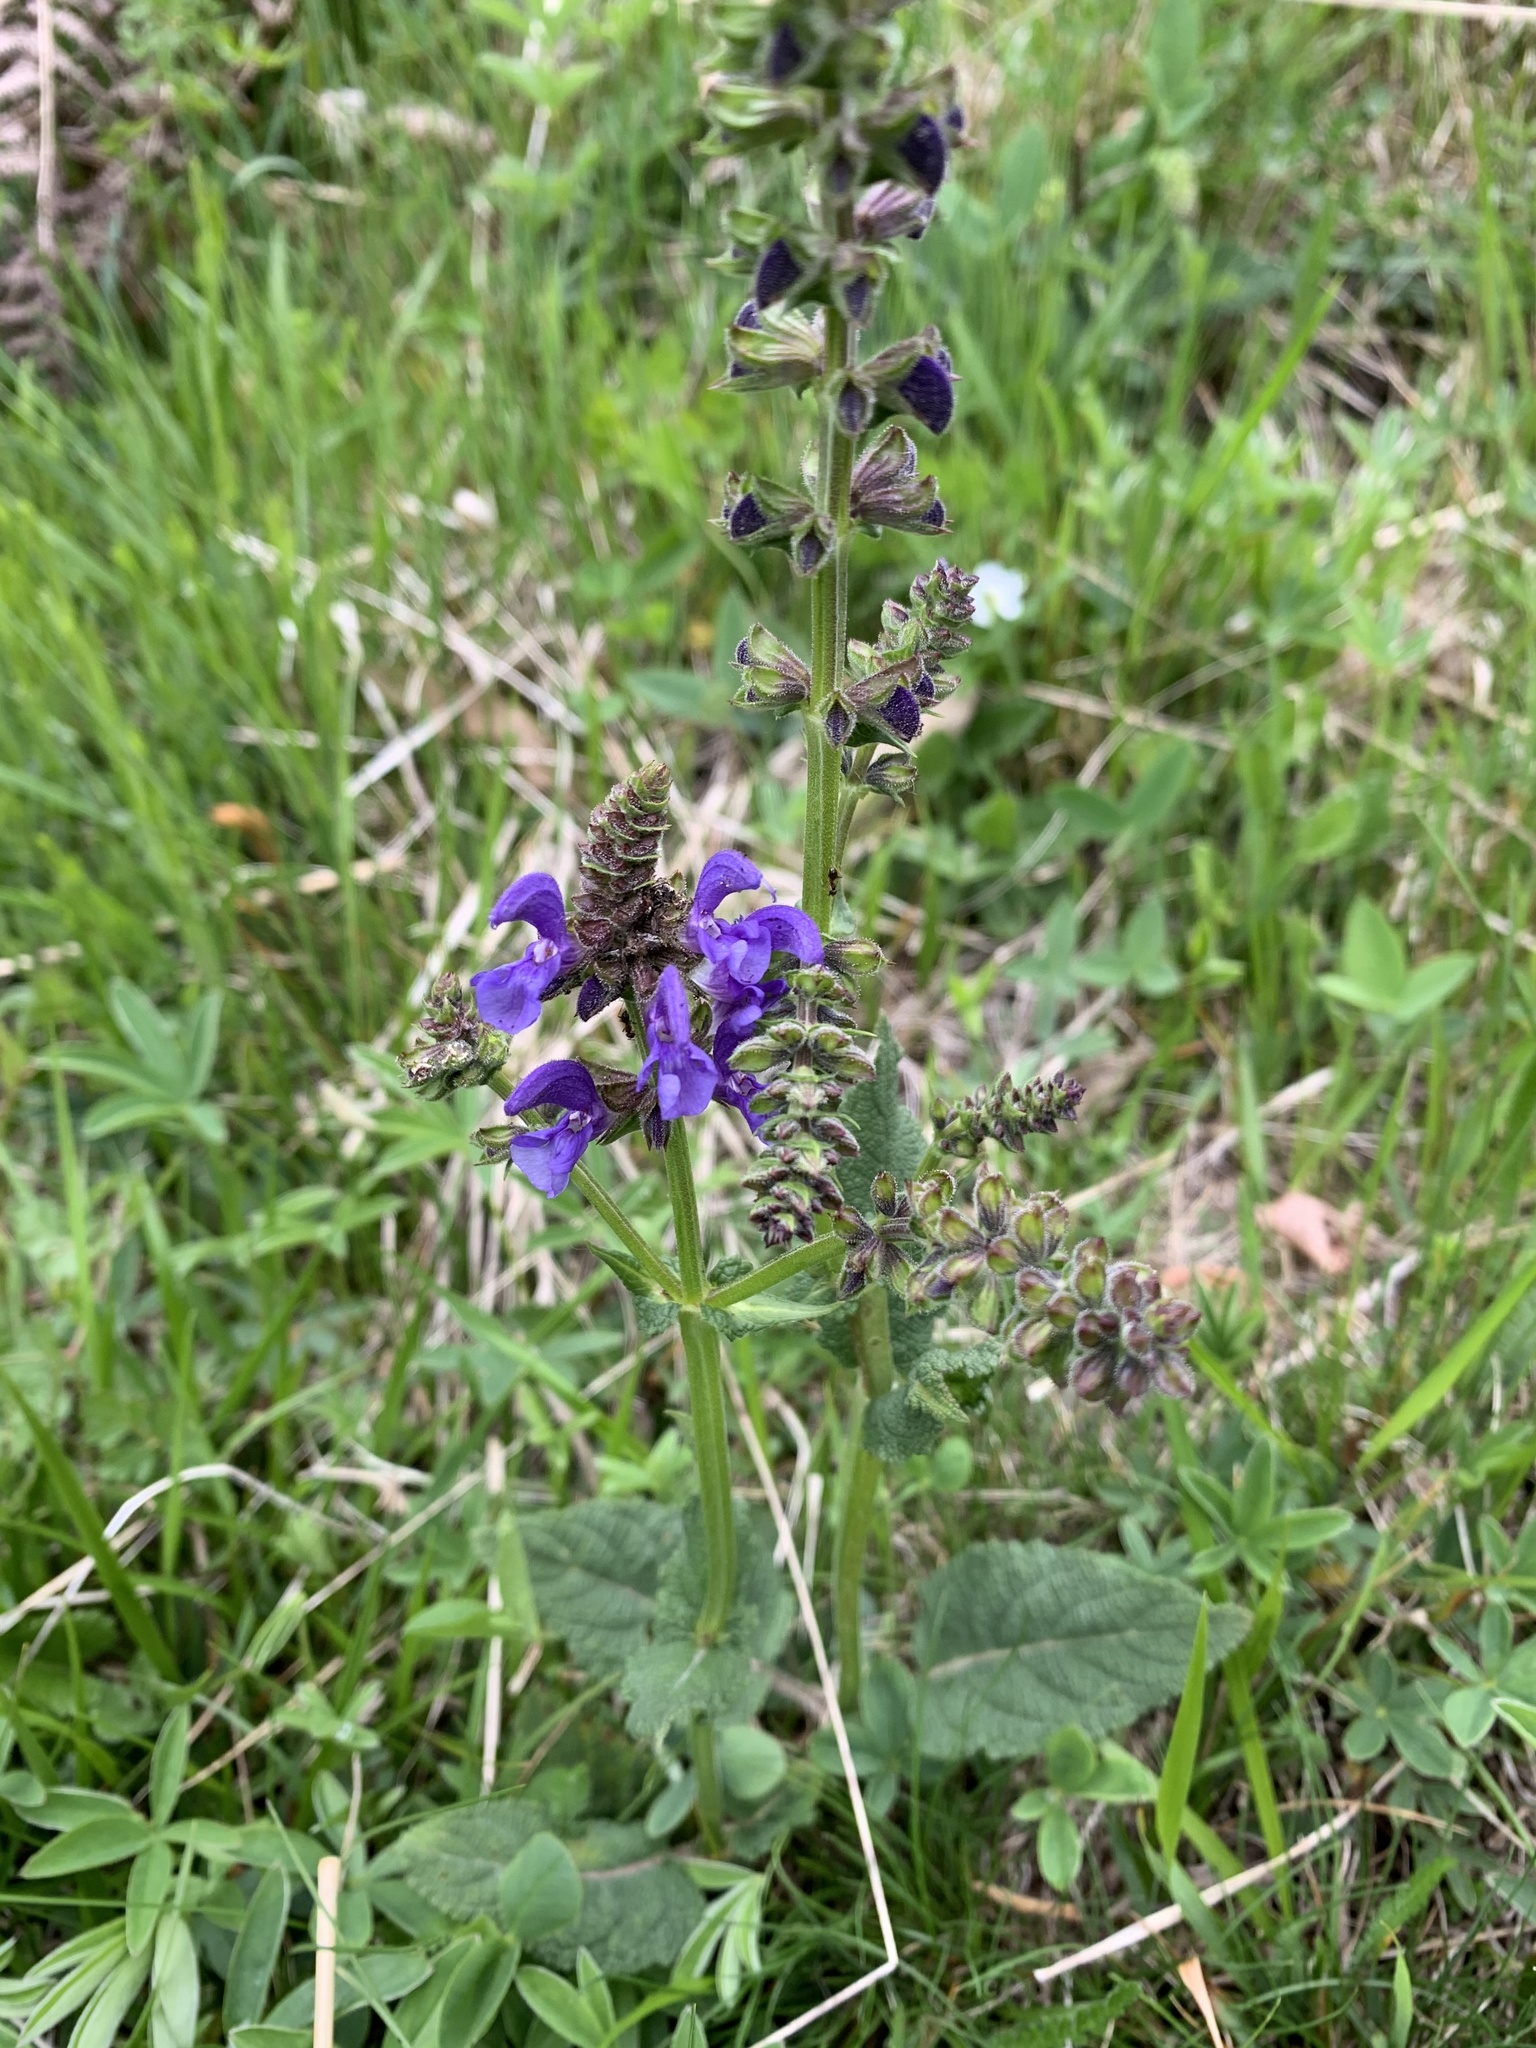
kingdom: Plantae
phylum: Tracheophyta
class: Magnoliopsida
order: Lamiales
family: Lamiaceae
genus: Salvia
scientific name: Salvia pratensis
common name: Meadow sage
